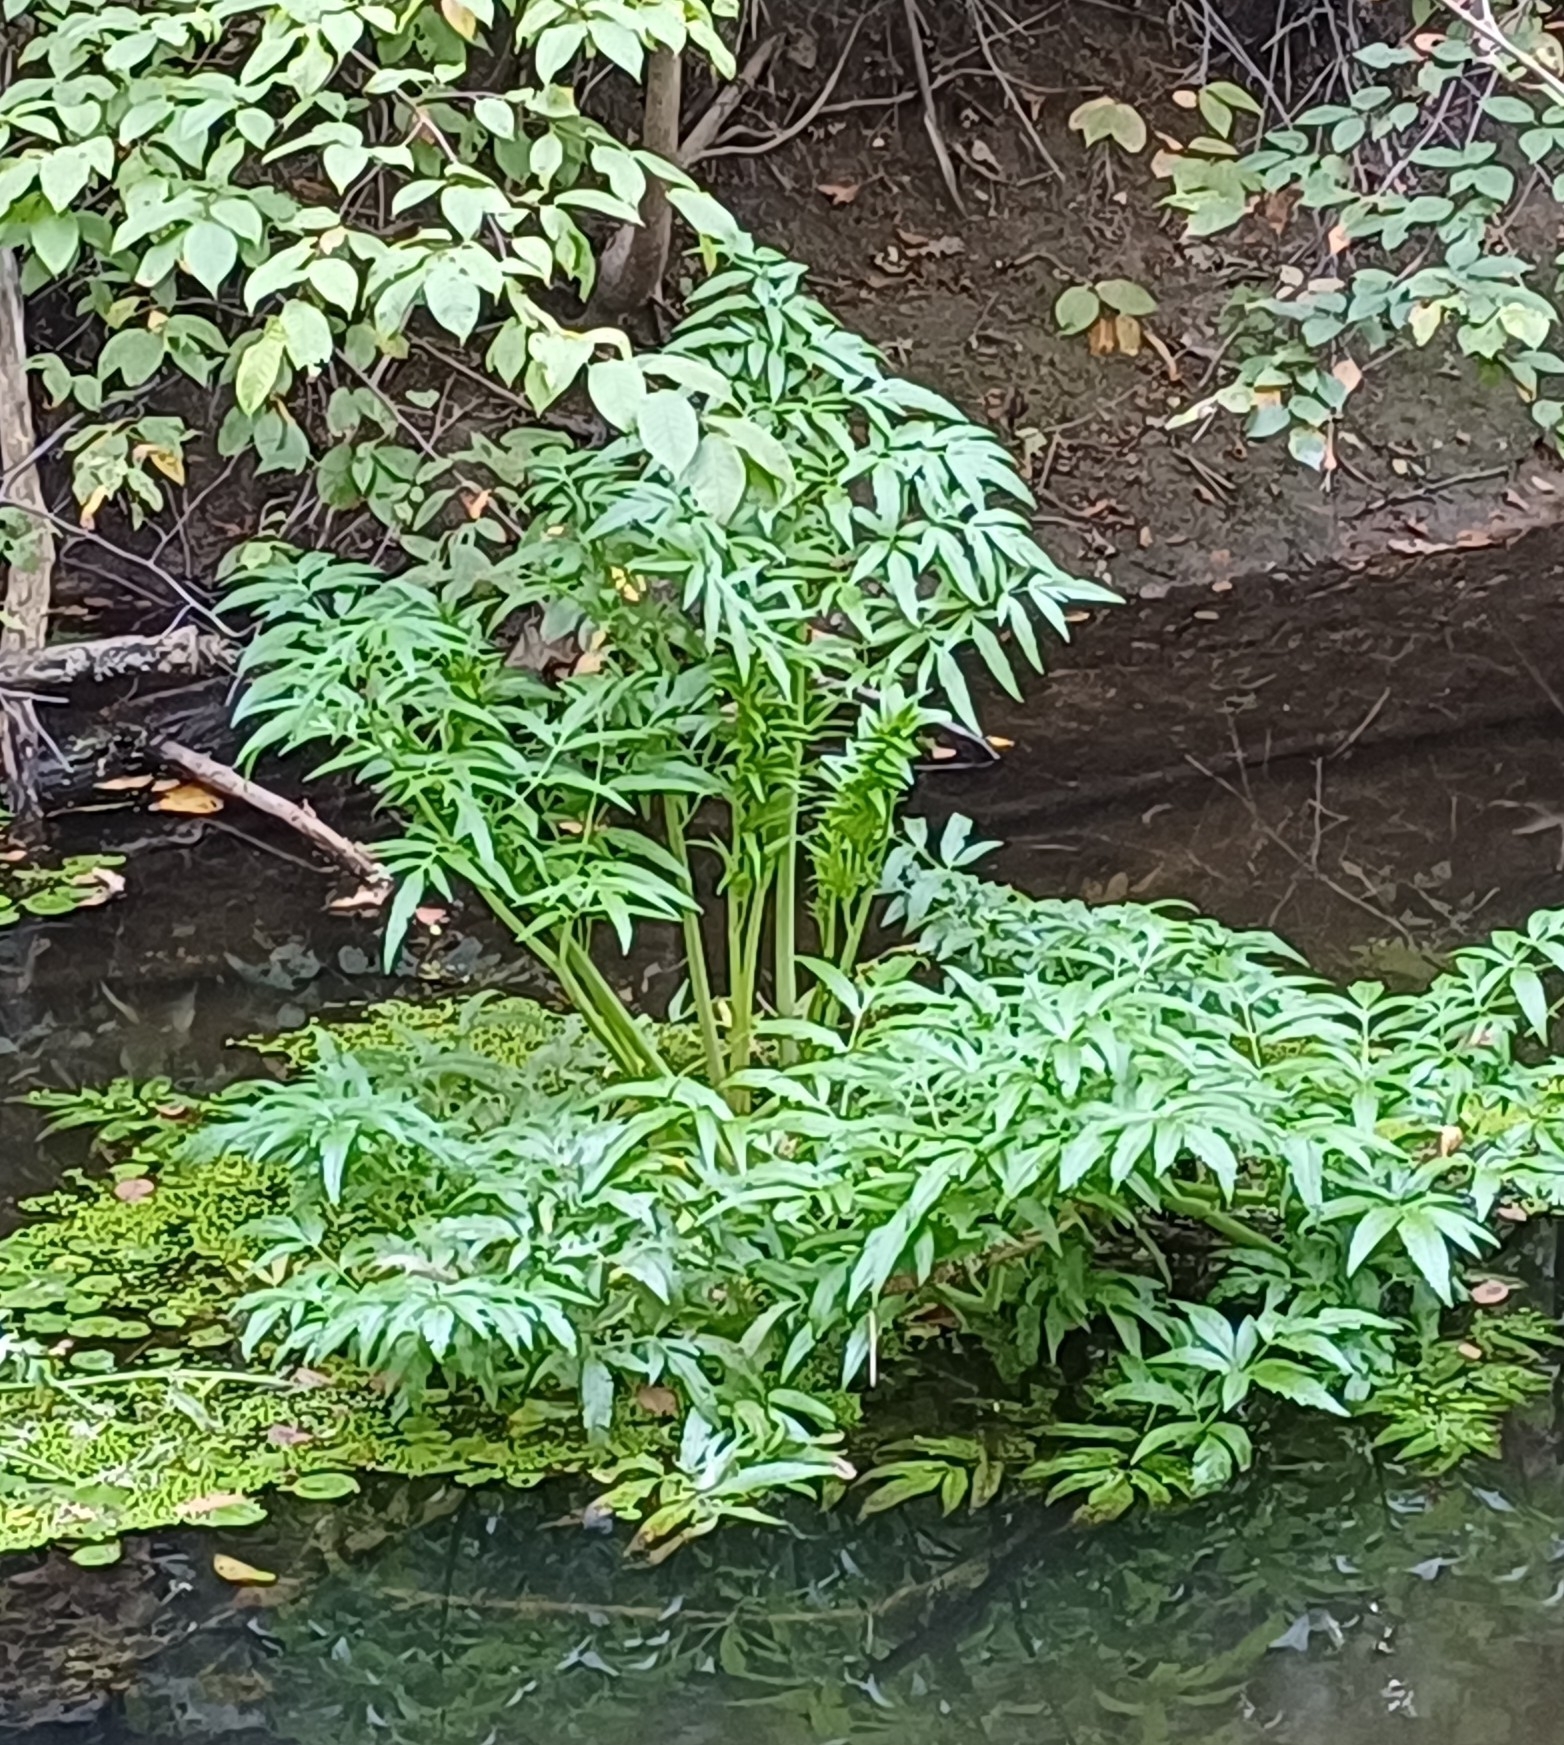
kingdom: Plantae
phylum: Tracheophyta
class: Magnoliopsida
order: Apiales
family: Apiaceae
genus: Cicuta
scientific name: Cicuta virosa
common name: Cowbane
